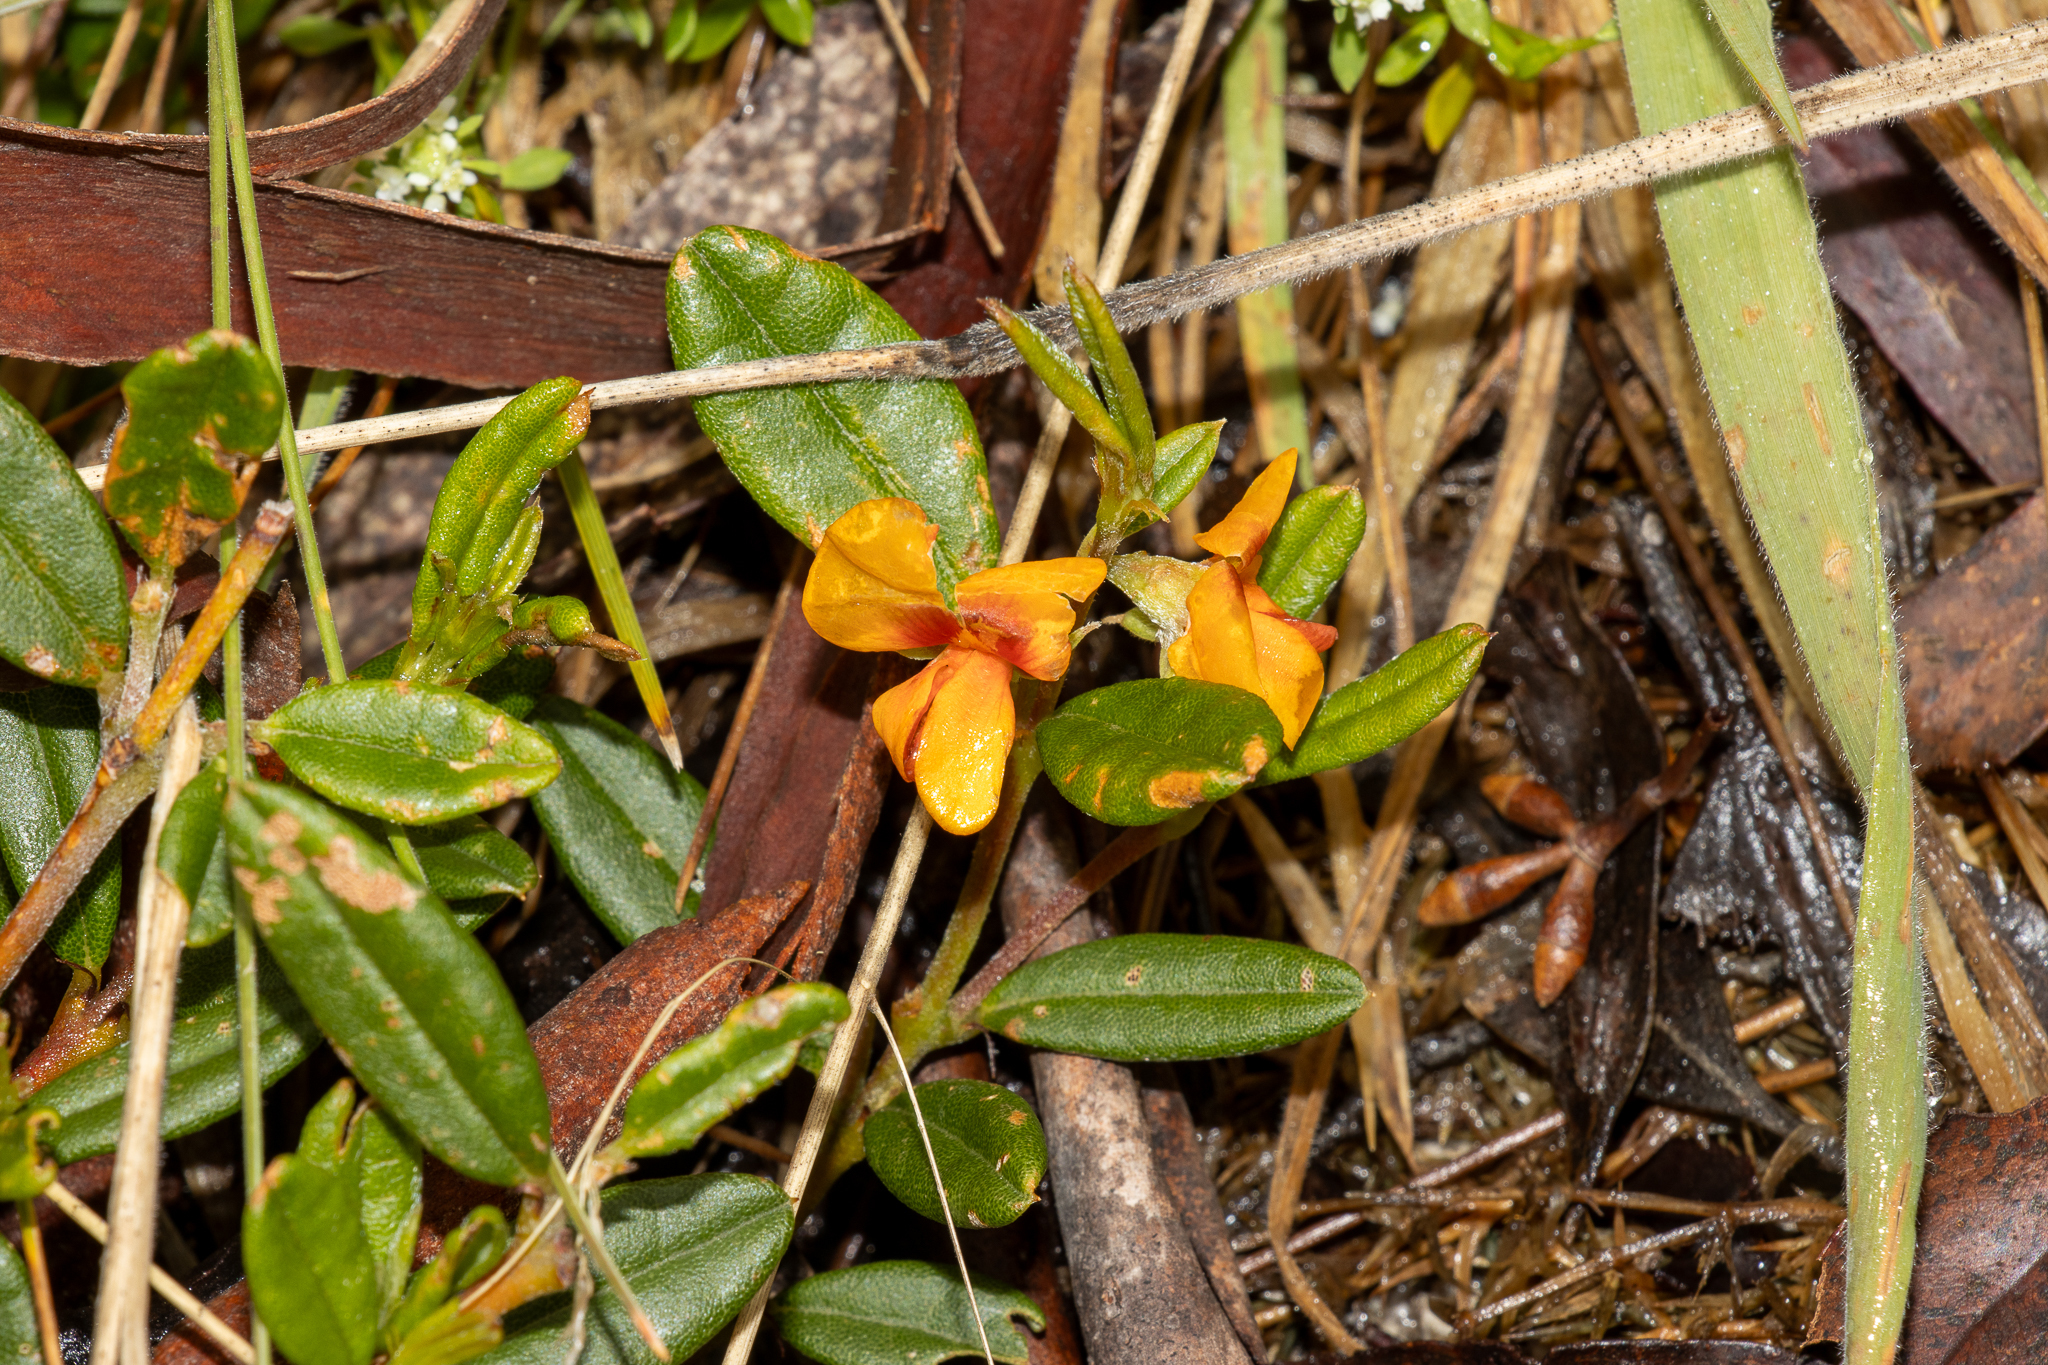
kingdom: Plantae
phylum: Tracheophyta
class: Magnoliopsida
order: Fabales
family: Fabaceae
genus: Podolobium
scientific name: Podolobium alpestre
